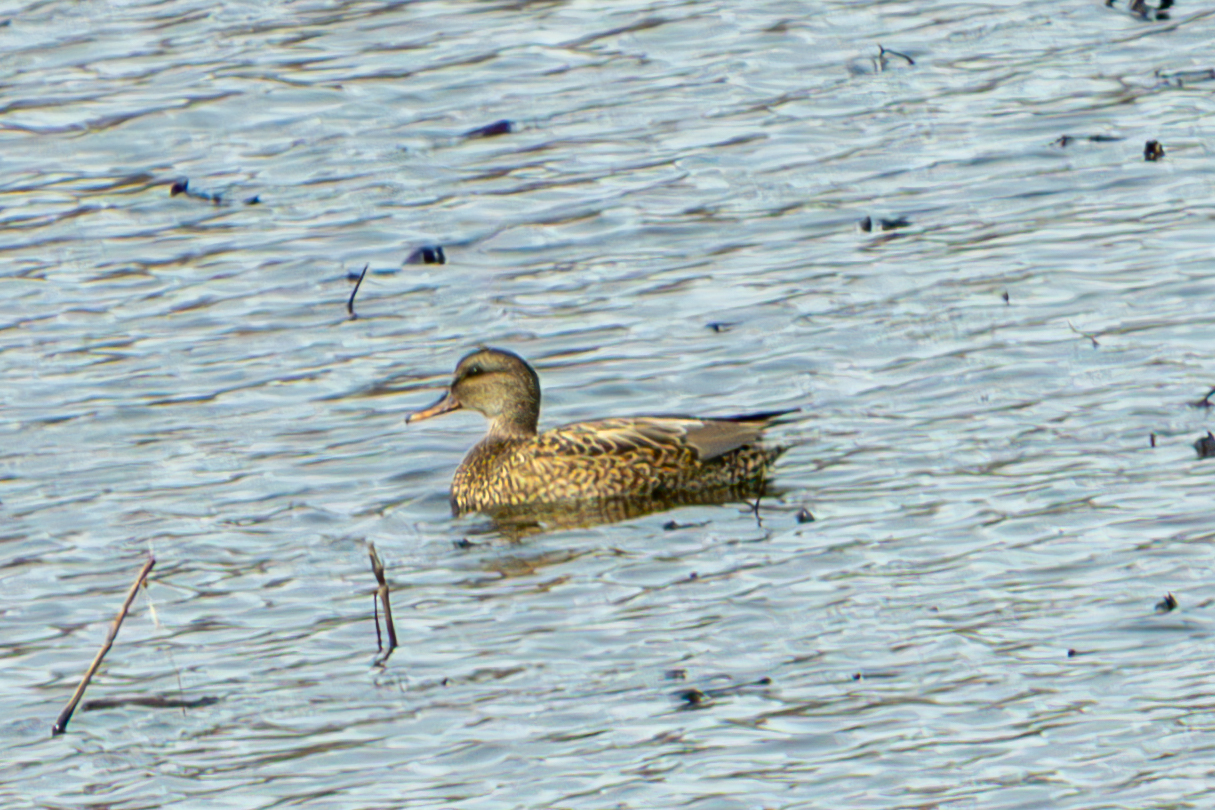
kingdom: Animalia
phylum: Chordata
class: Aves
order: Anseriformes
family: Anatidae
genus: Mareca
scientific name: Mareca strepera
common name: Gadwall
